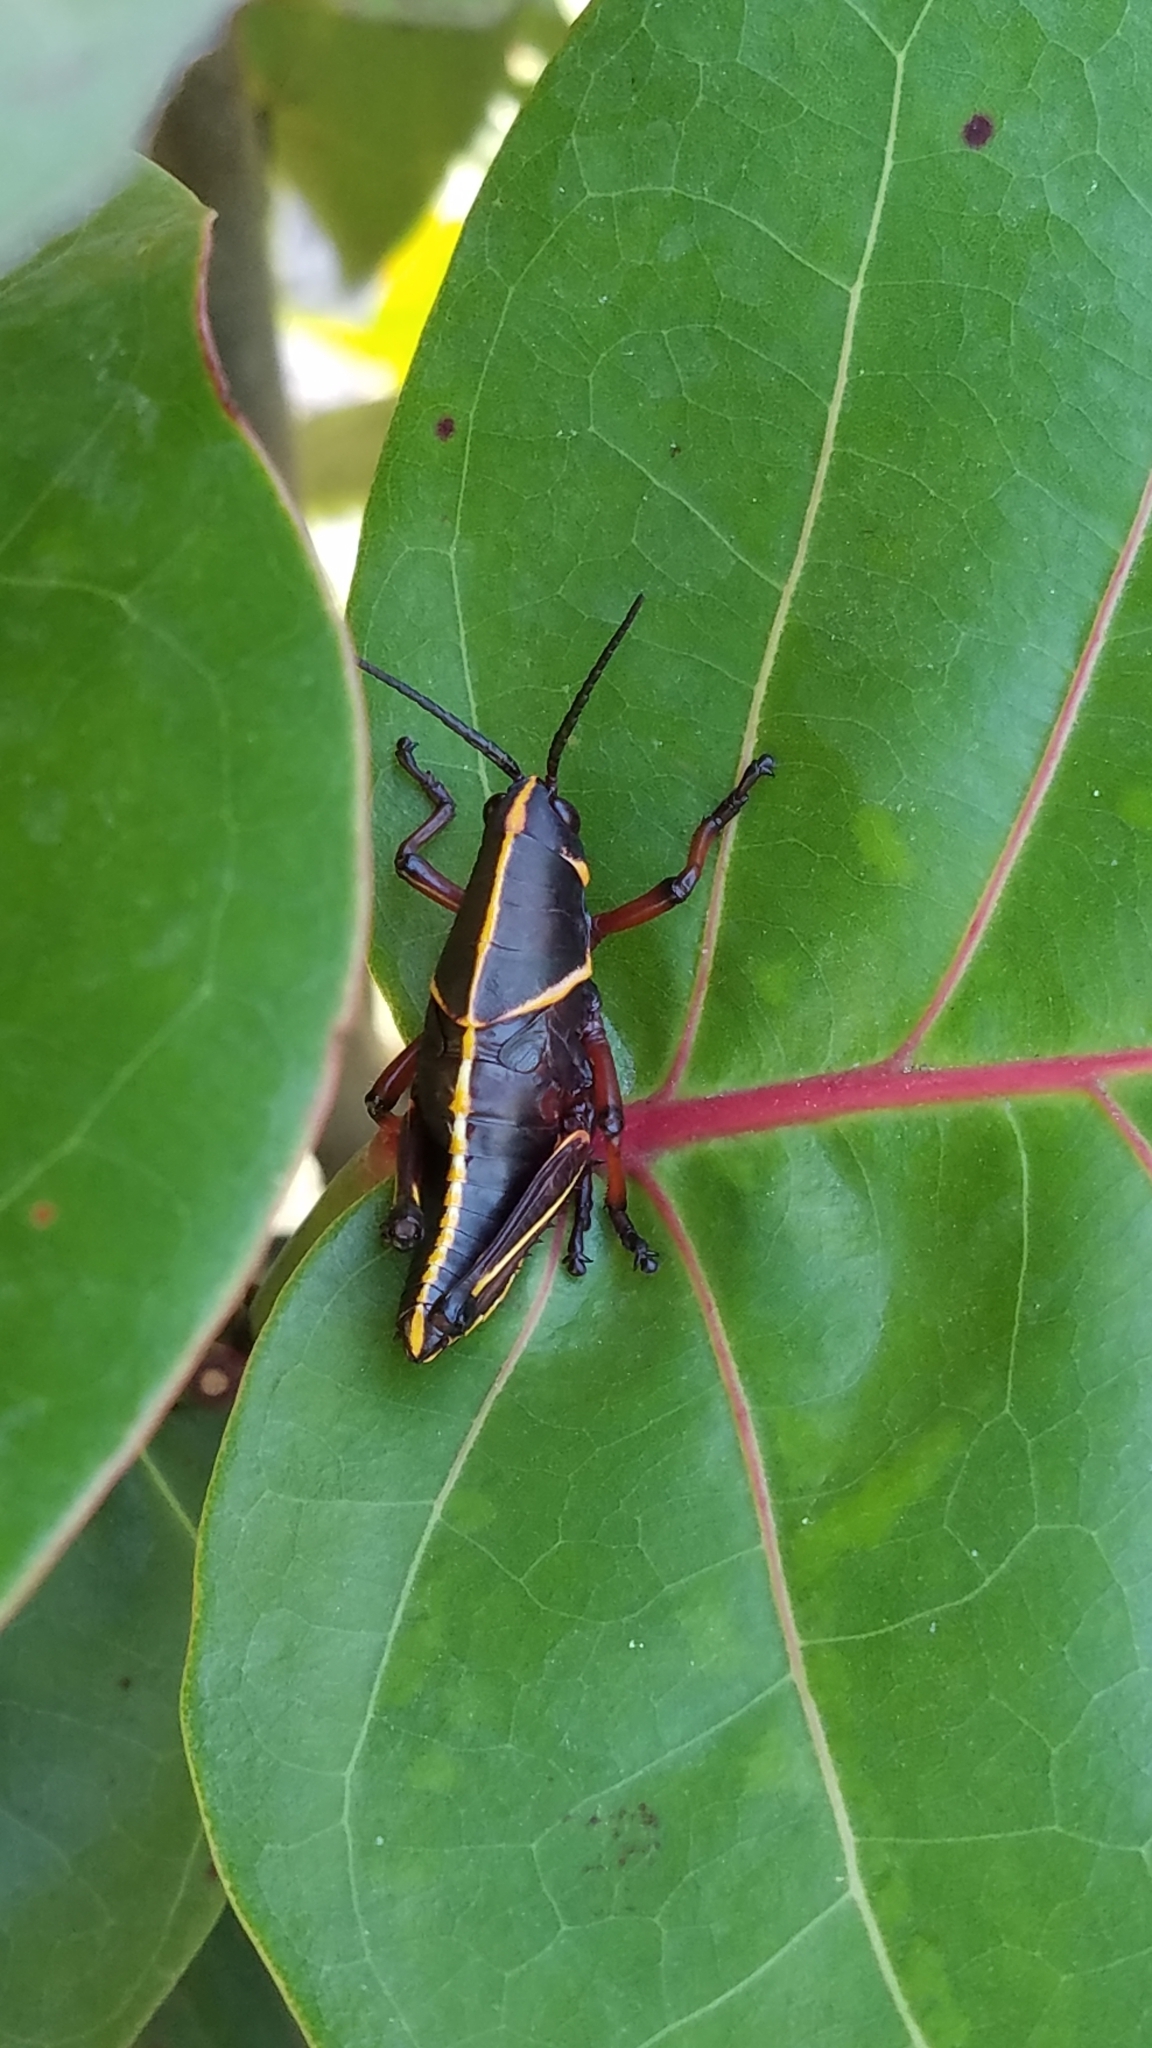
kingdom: Animalia
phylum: Arthropoda
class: Insecta
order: Orthoptera
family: Romaleidae
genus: Romalea
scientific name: Romalea microptera
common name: Eastern lubber grasshopper
